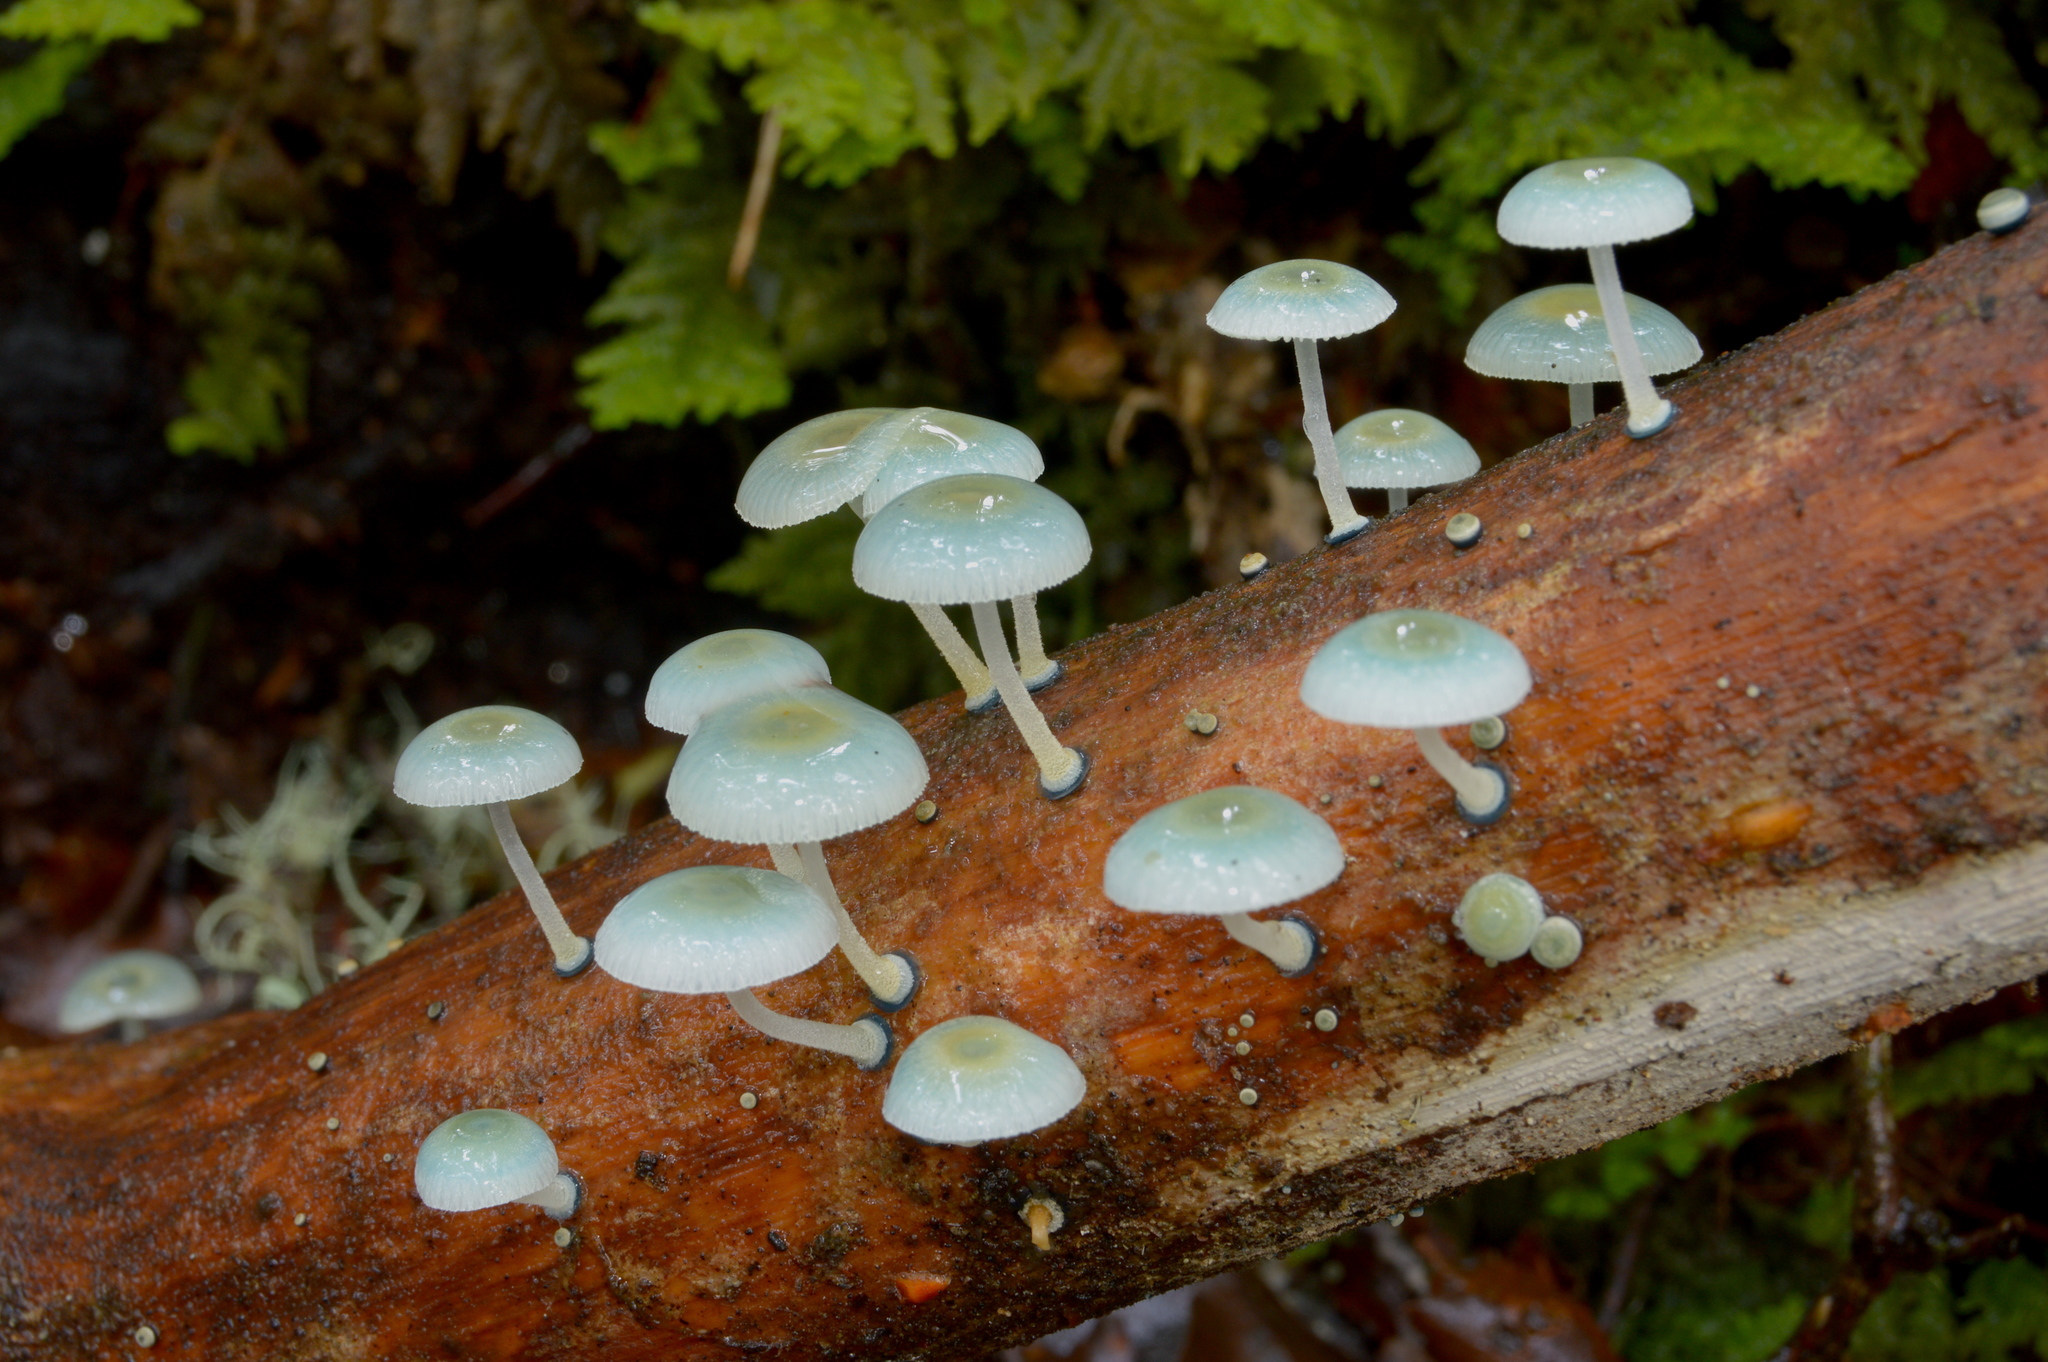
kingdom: Fungi
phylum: Basidiomycota
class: Agaricomycetes
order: Agaricales
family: Mycenaceae
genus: Mycena
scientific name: Mycena interrupta
